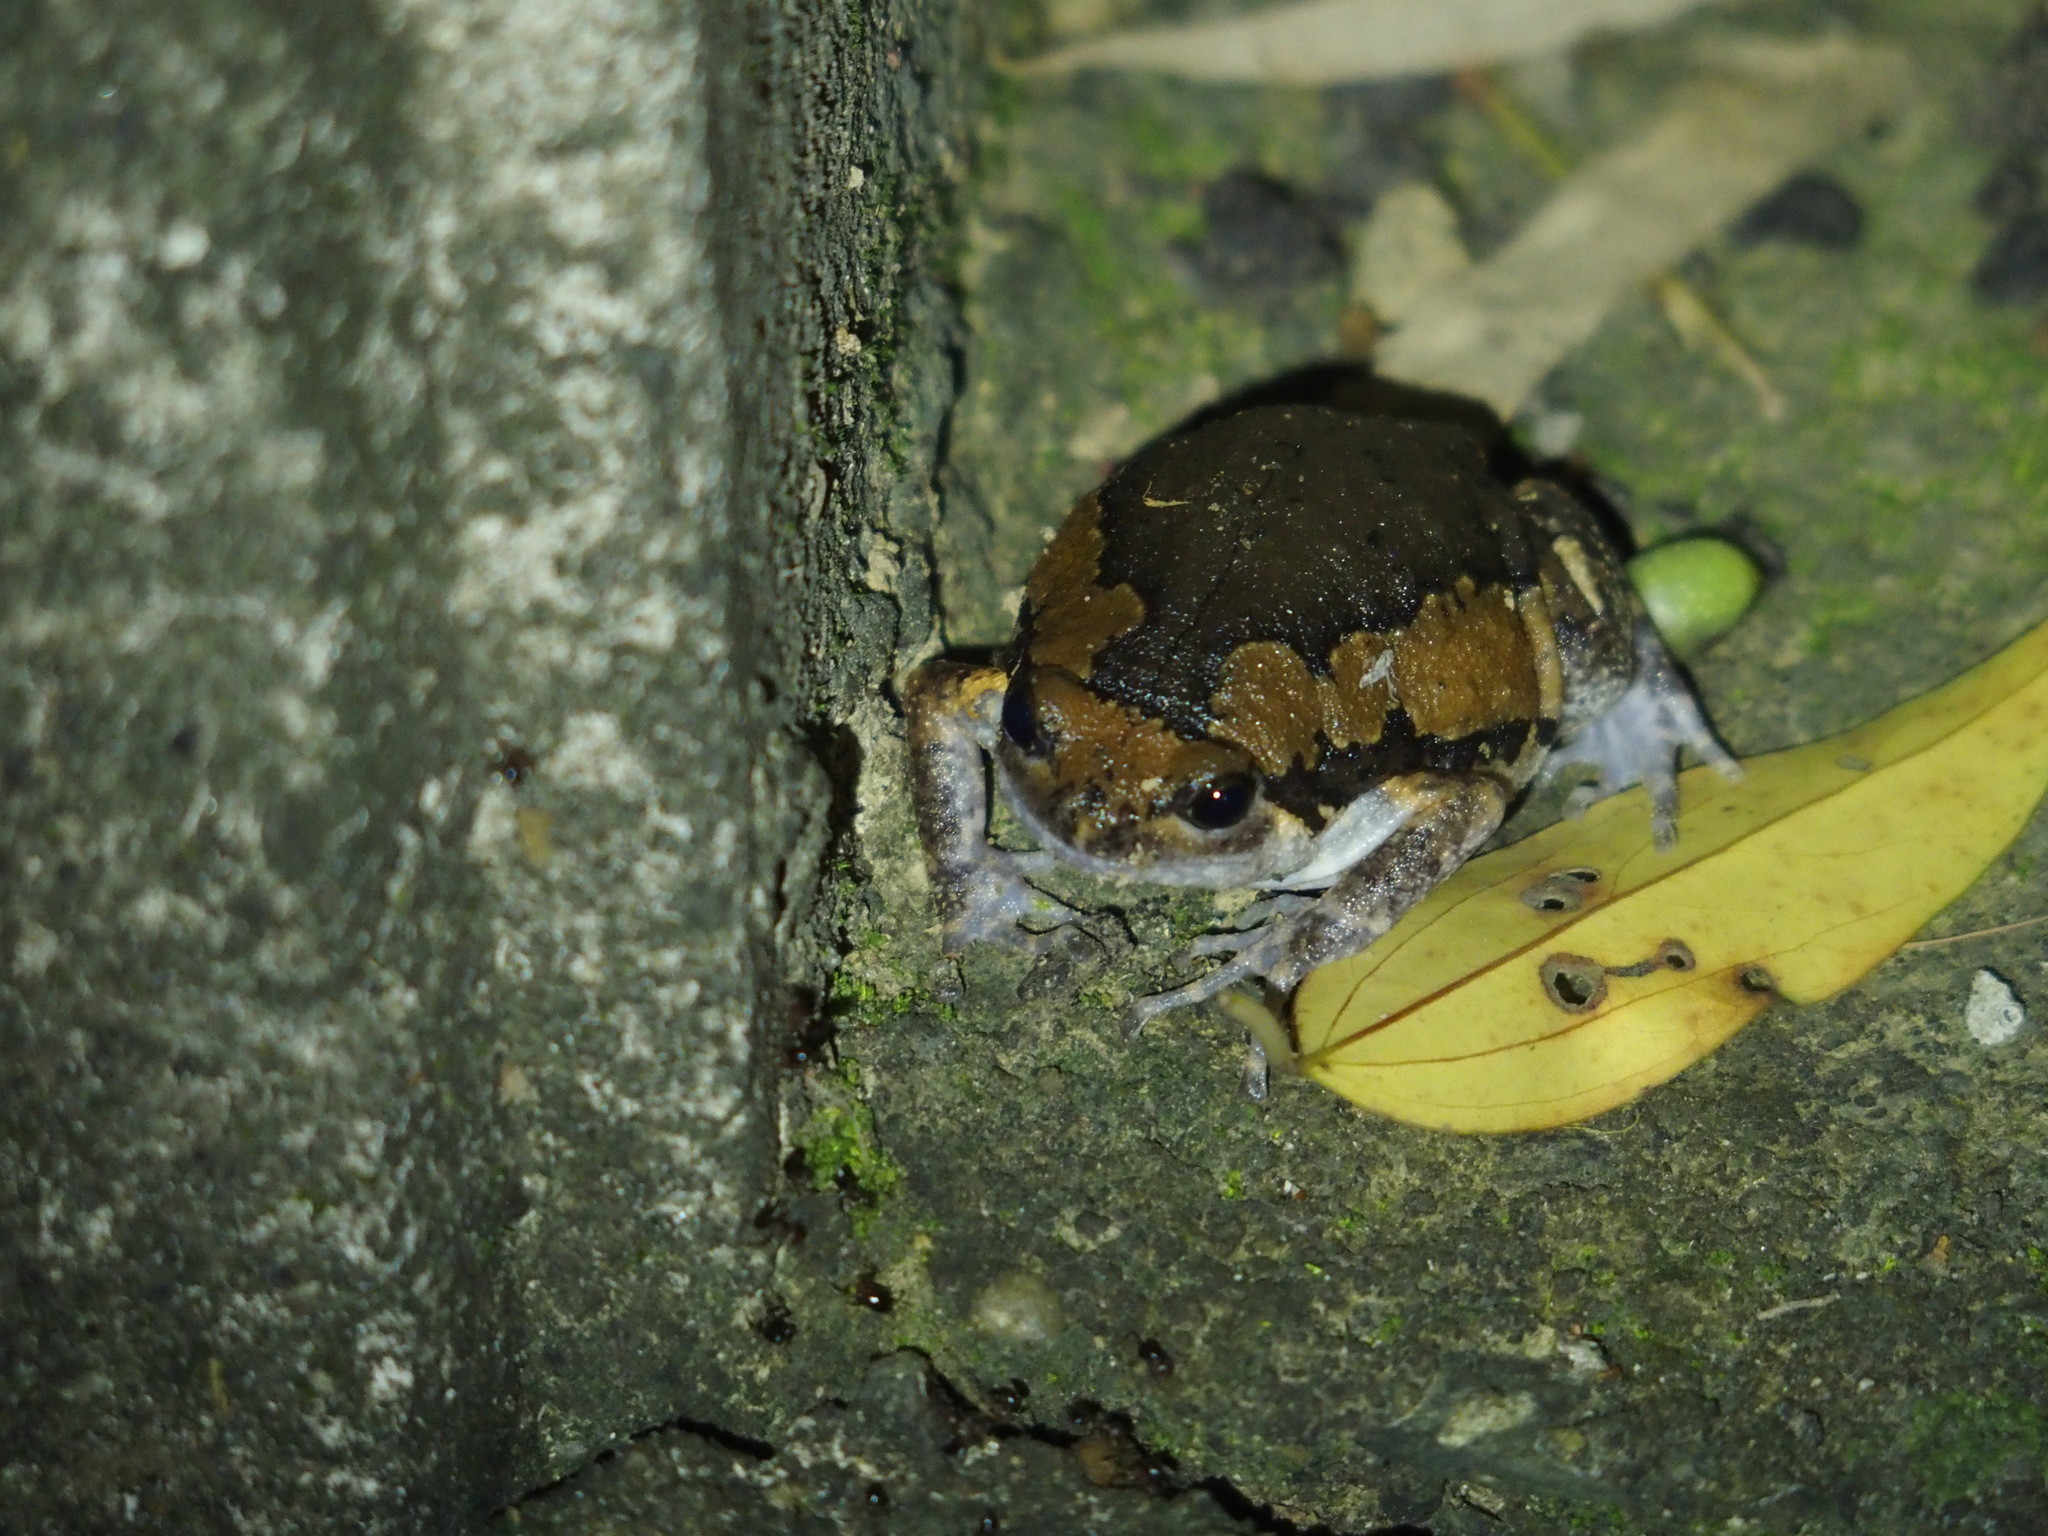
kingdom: Animalia
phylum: Chordata
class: Amphibia
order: Anura
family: Microhylidae
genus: Kaloula
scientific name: Kaloula pulchra
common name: Common,banded bullfrog
